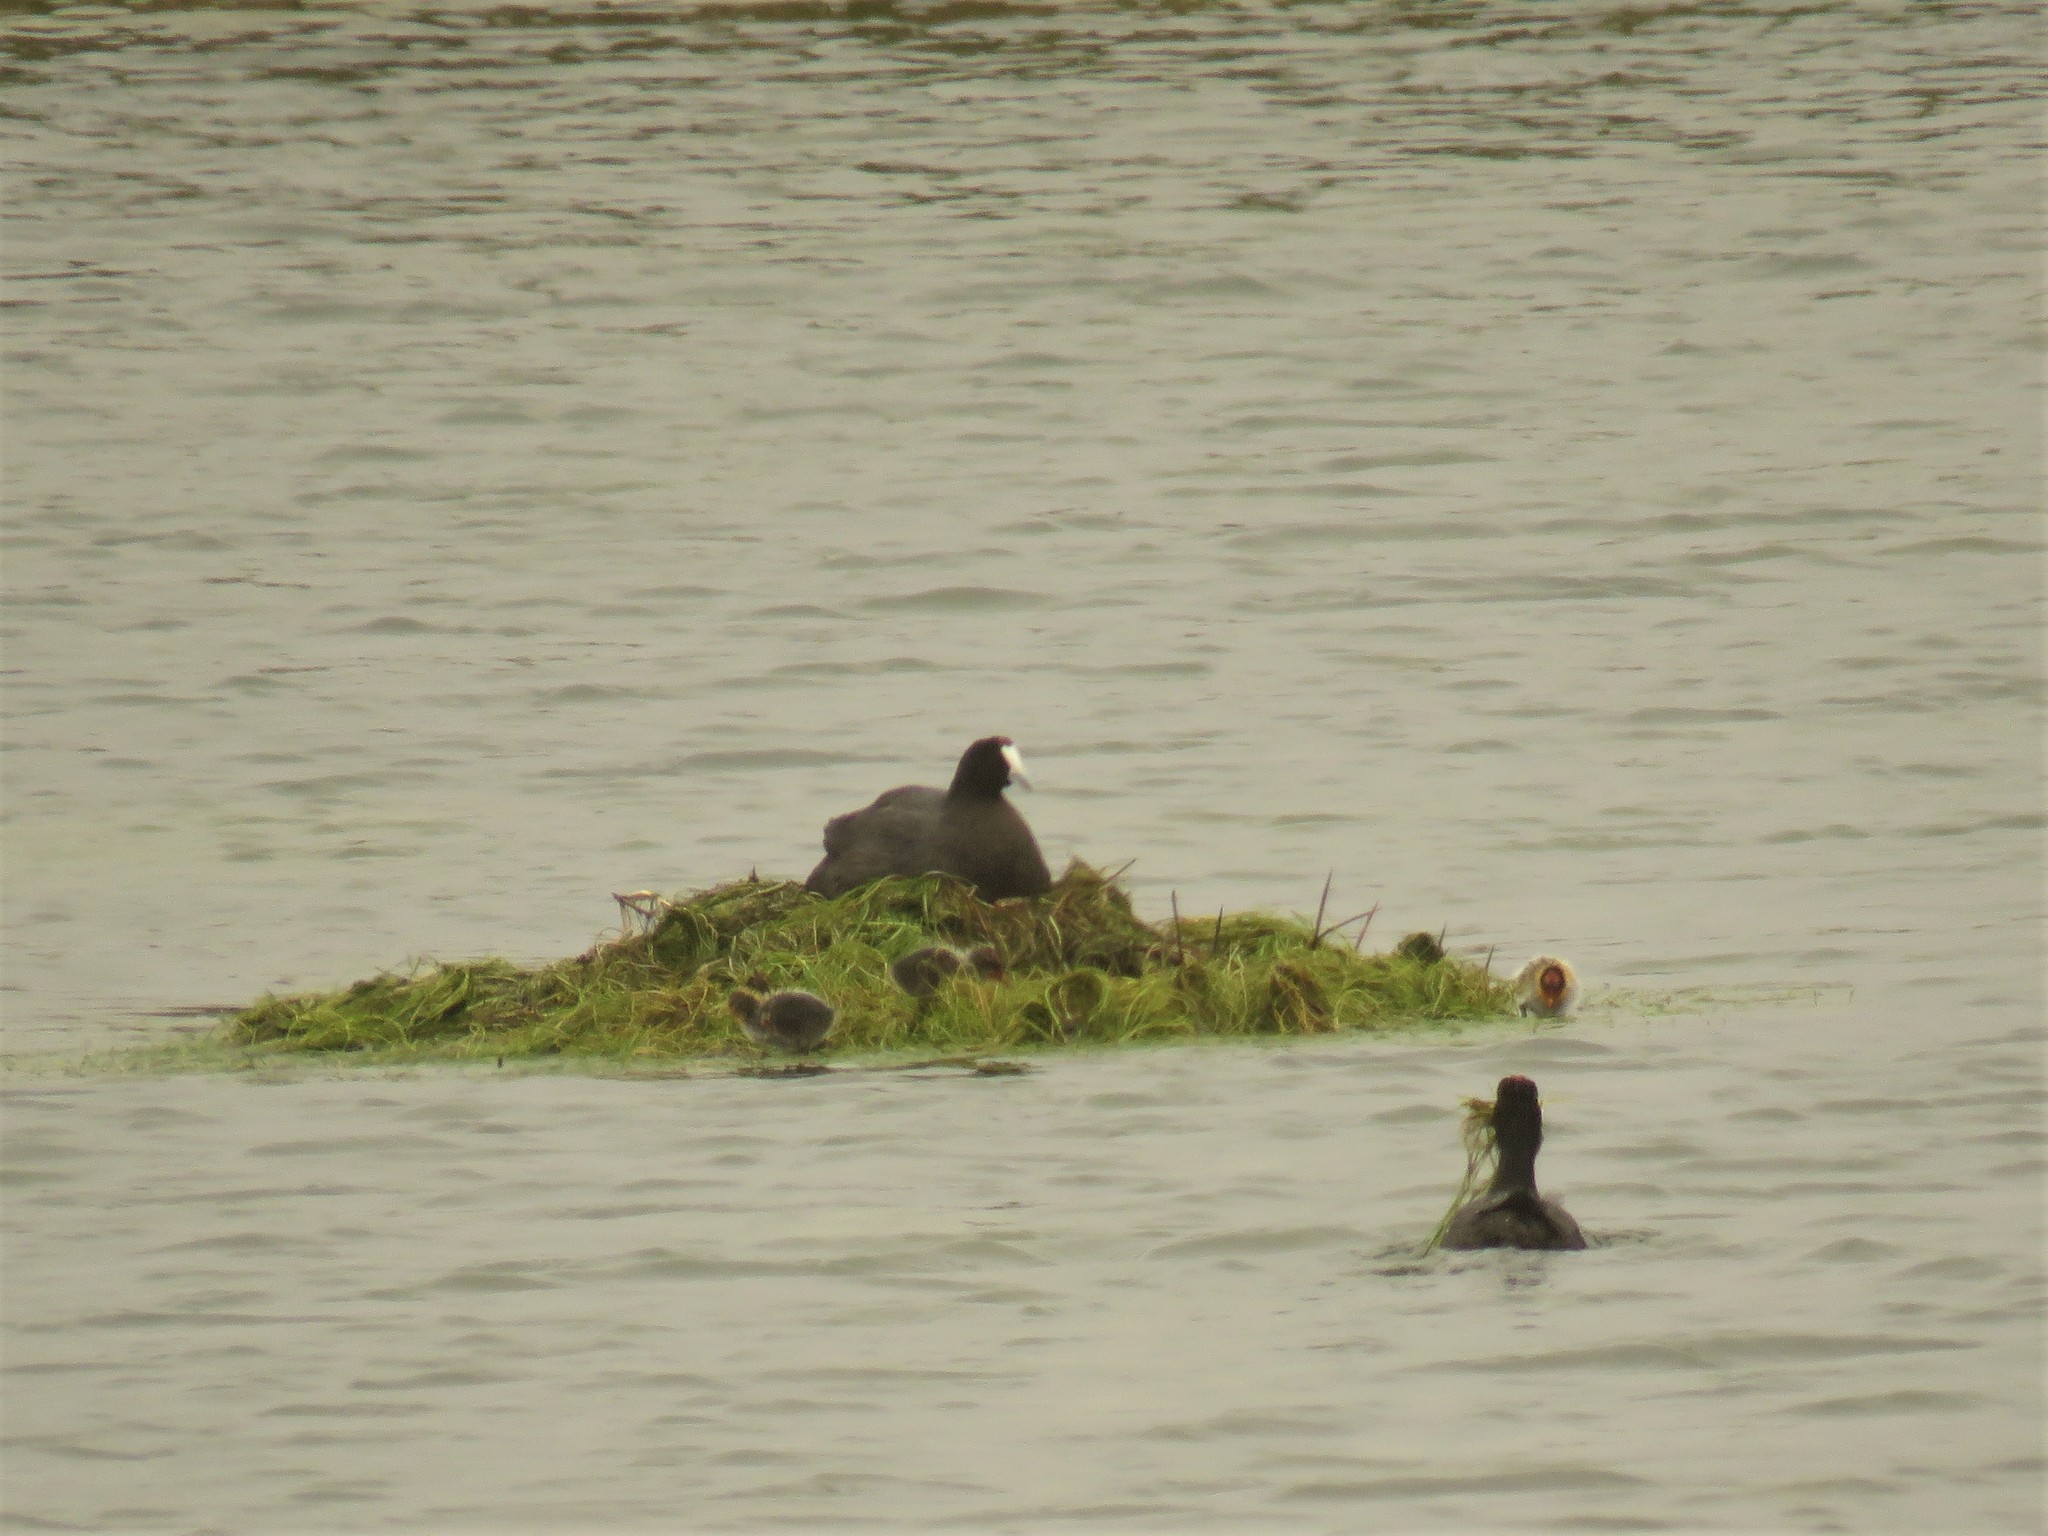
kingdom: Animalia
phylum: Chordata
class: Aves
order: Gruiformes
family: Rallidae
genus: Fulica
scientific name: Fulica cristata
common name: Red-knobbed coot
